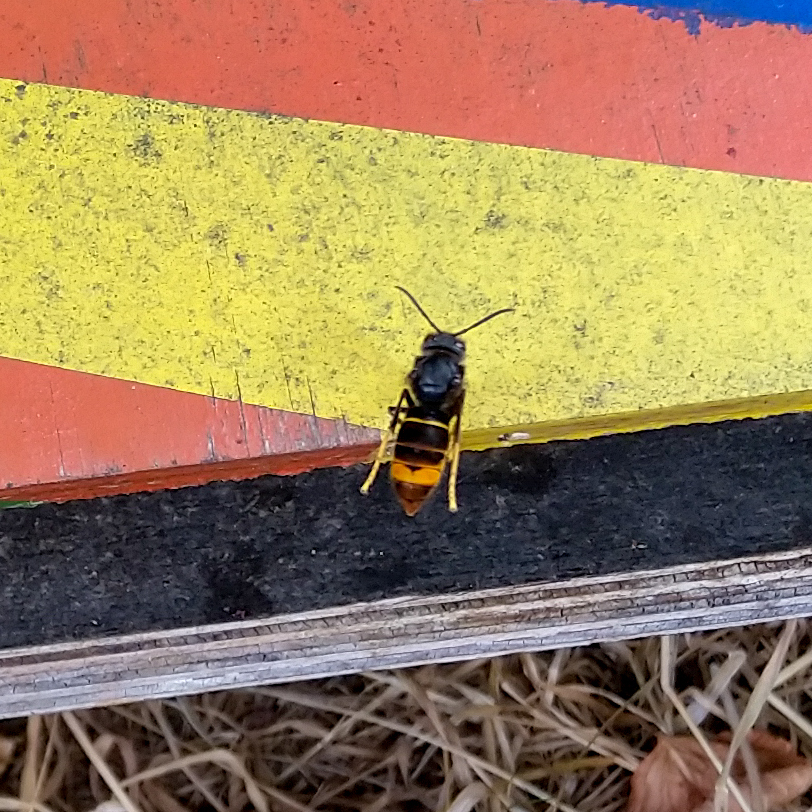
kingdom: Animalia
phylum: Arthropoda
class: Insecta
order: Hymenoptera
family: Vespidae
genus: Vespa
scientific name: Vespa velutina
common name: Asian hornet
